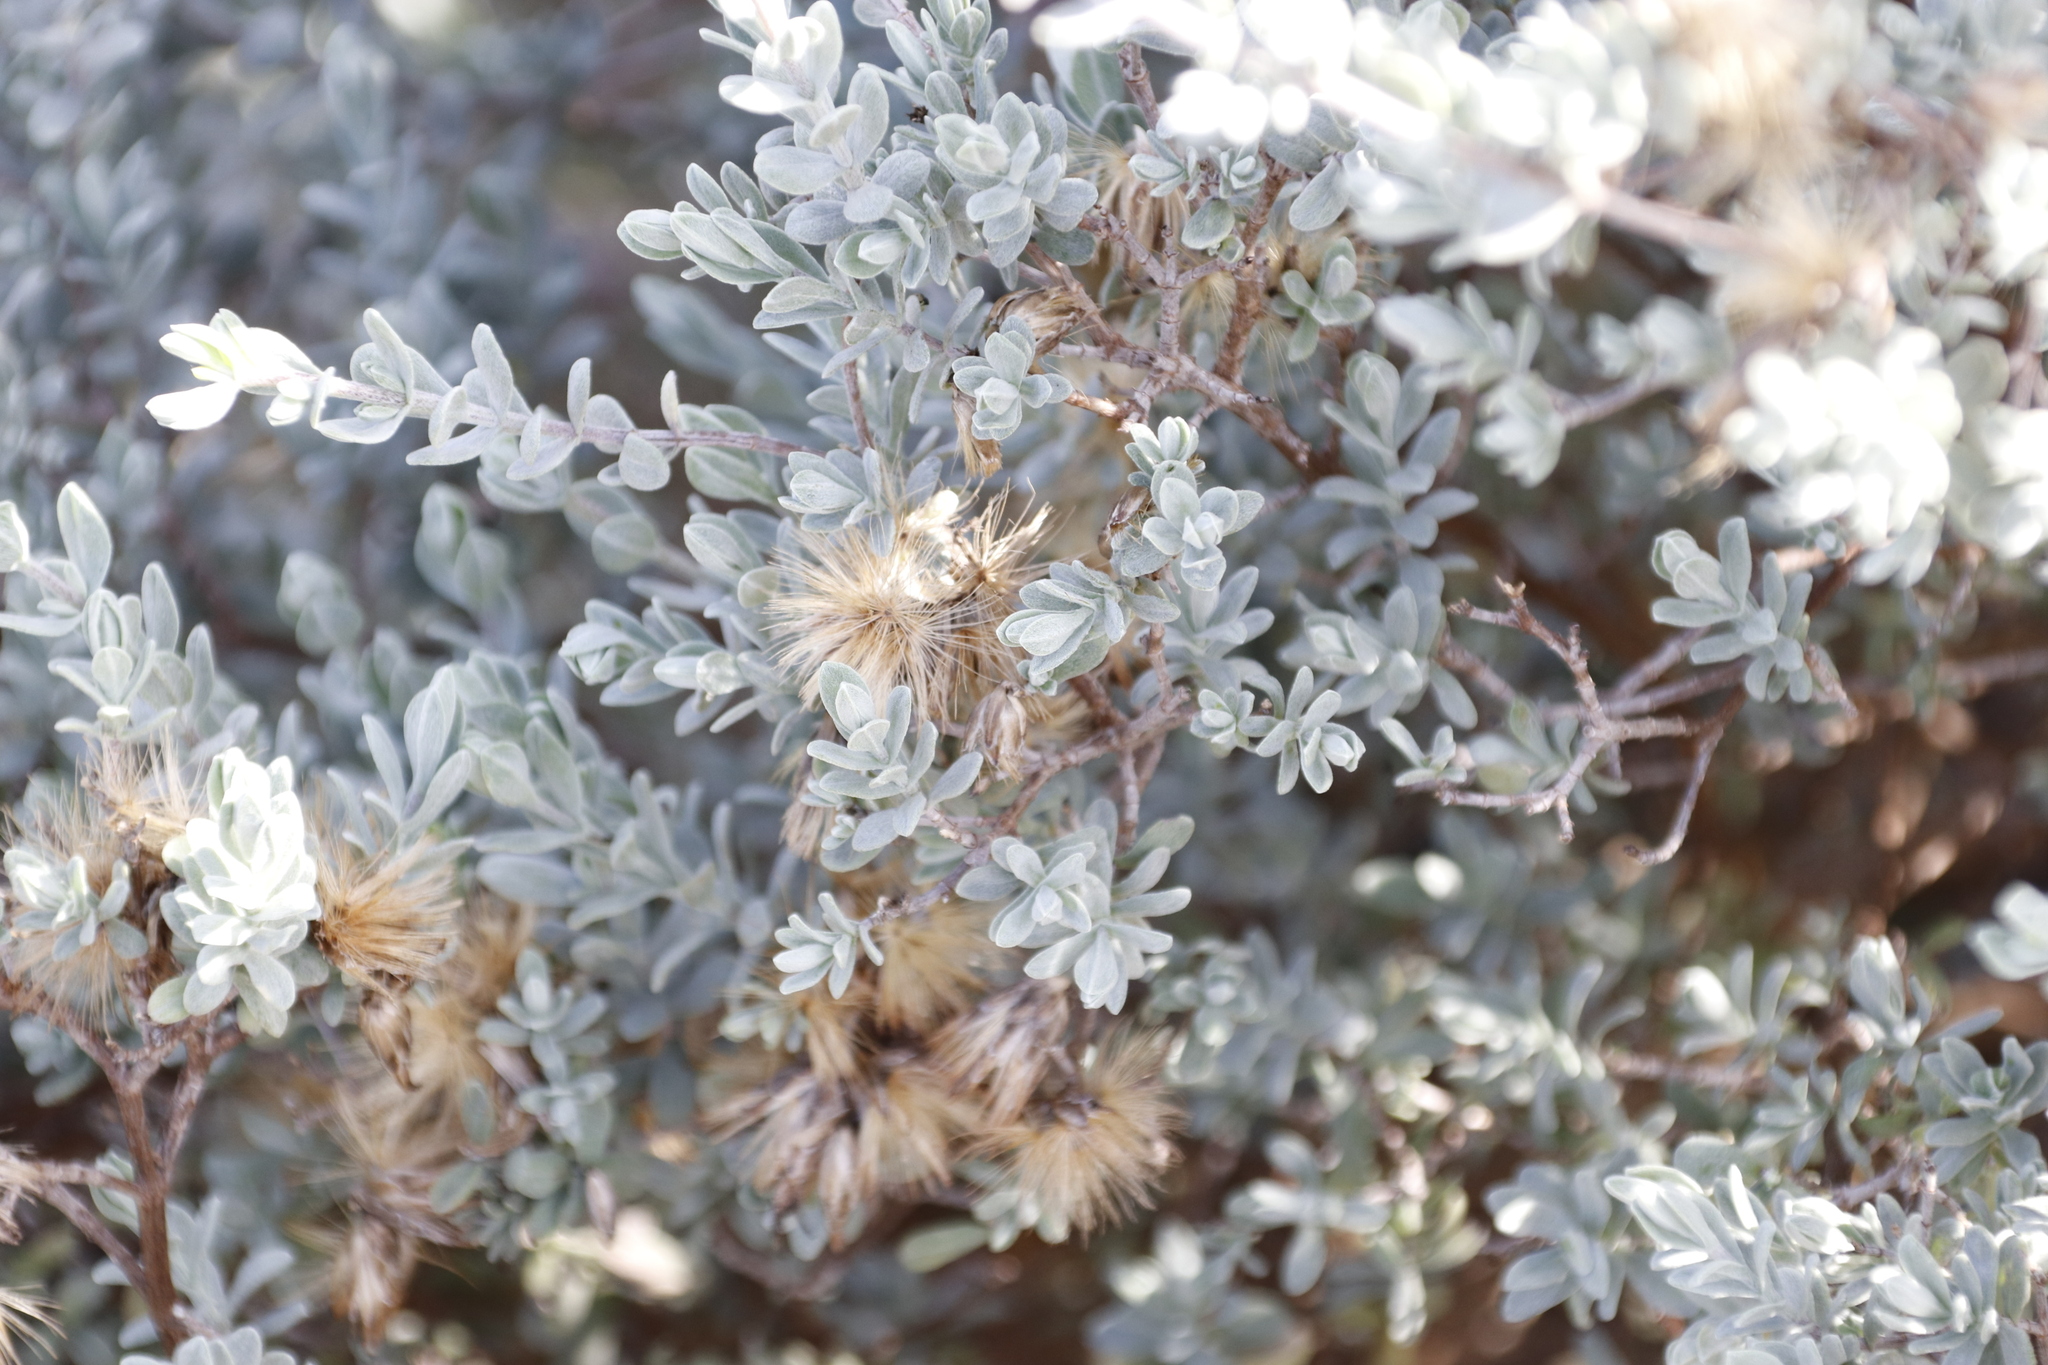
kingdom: Plantae
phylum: Tracheophyta
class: Magnoliopsida
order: Asterales
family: Asteraceae
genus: Pteronia
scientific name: Pteronia incana
